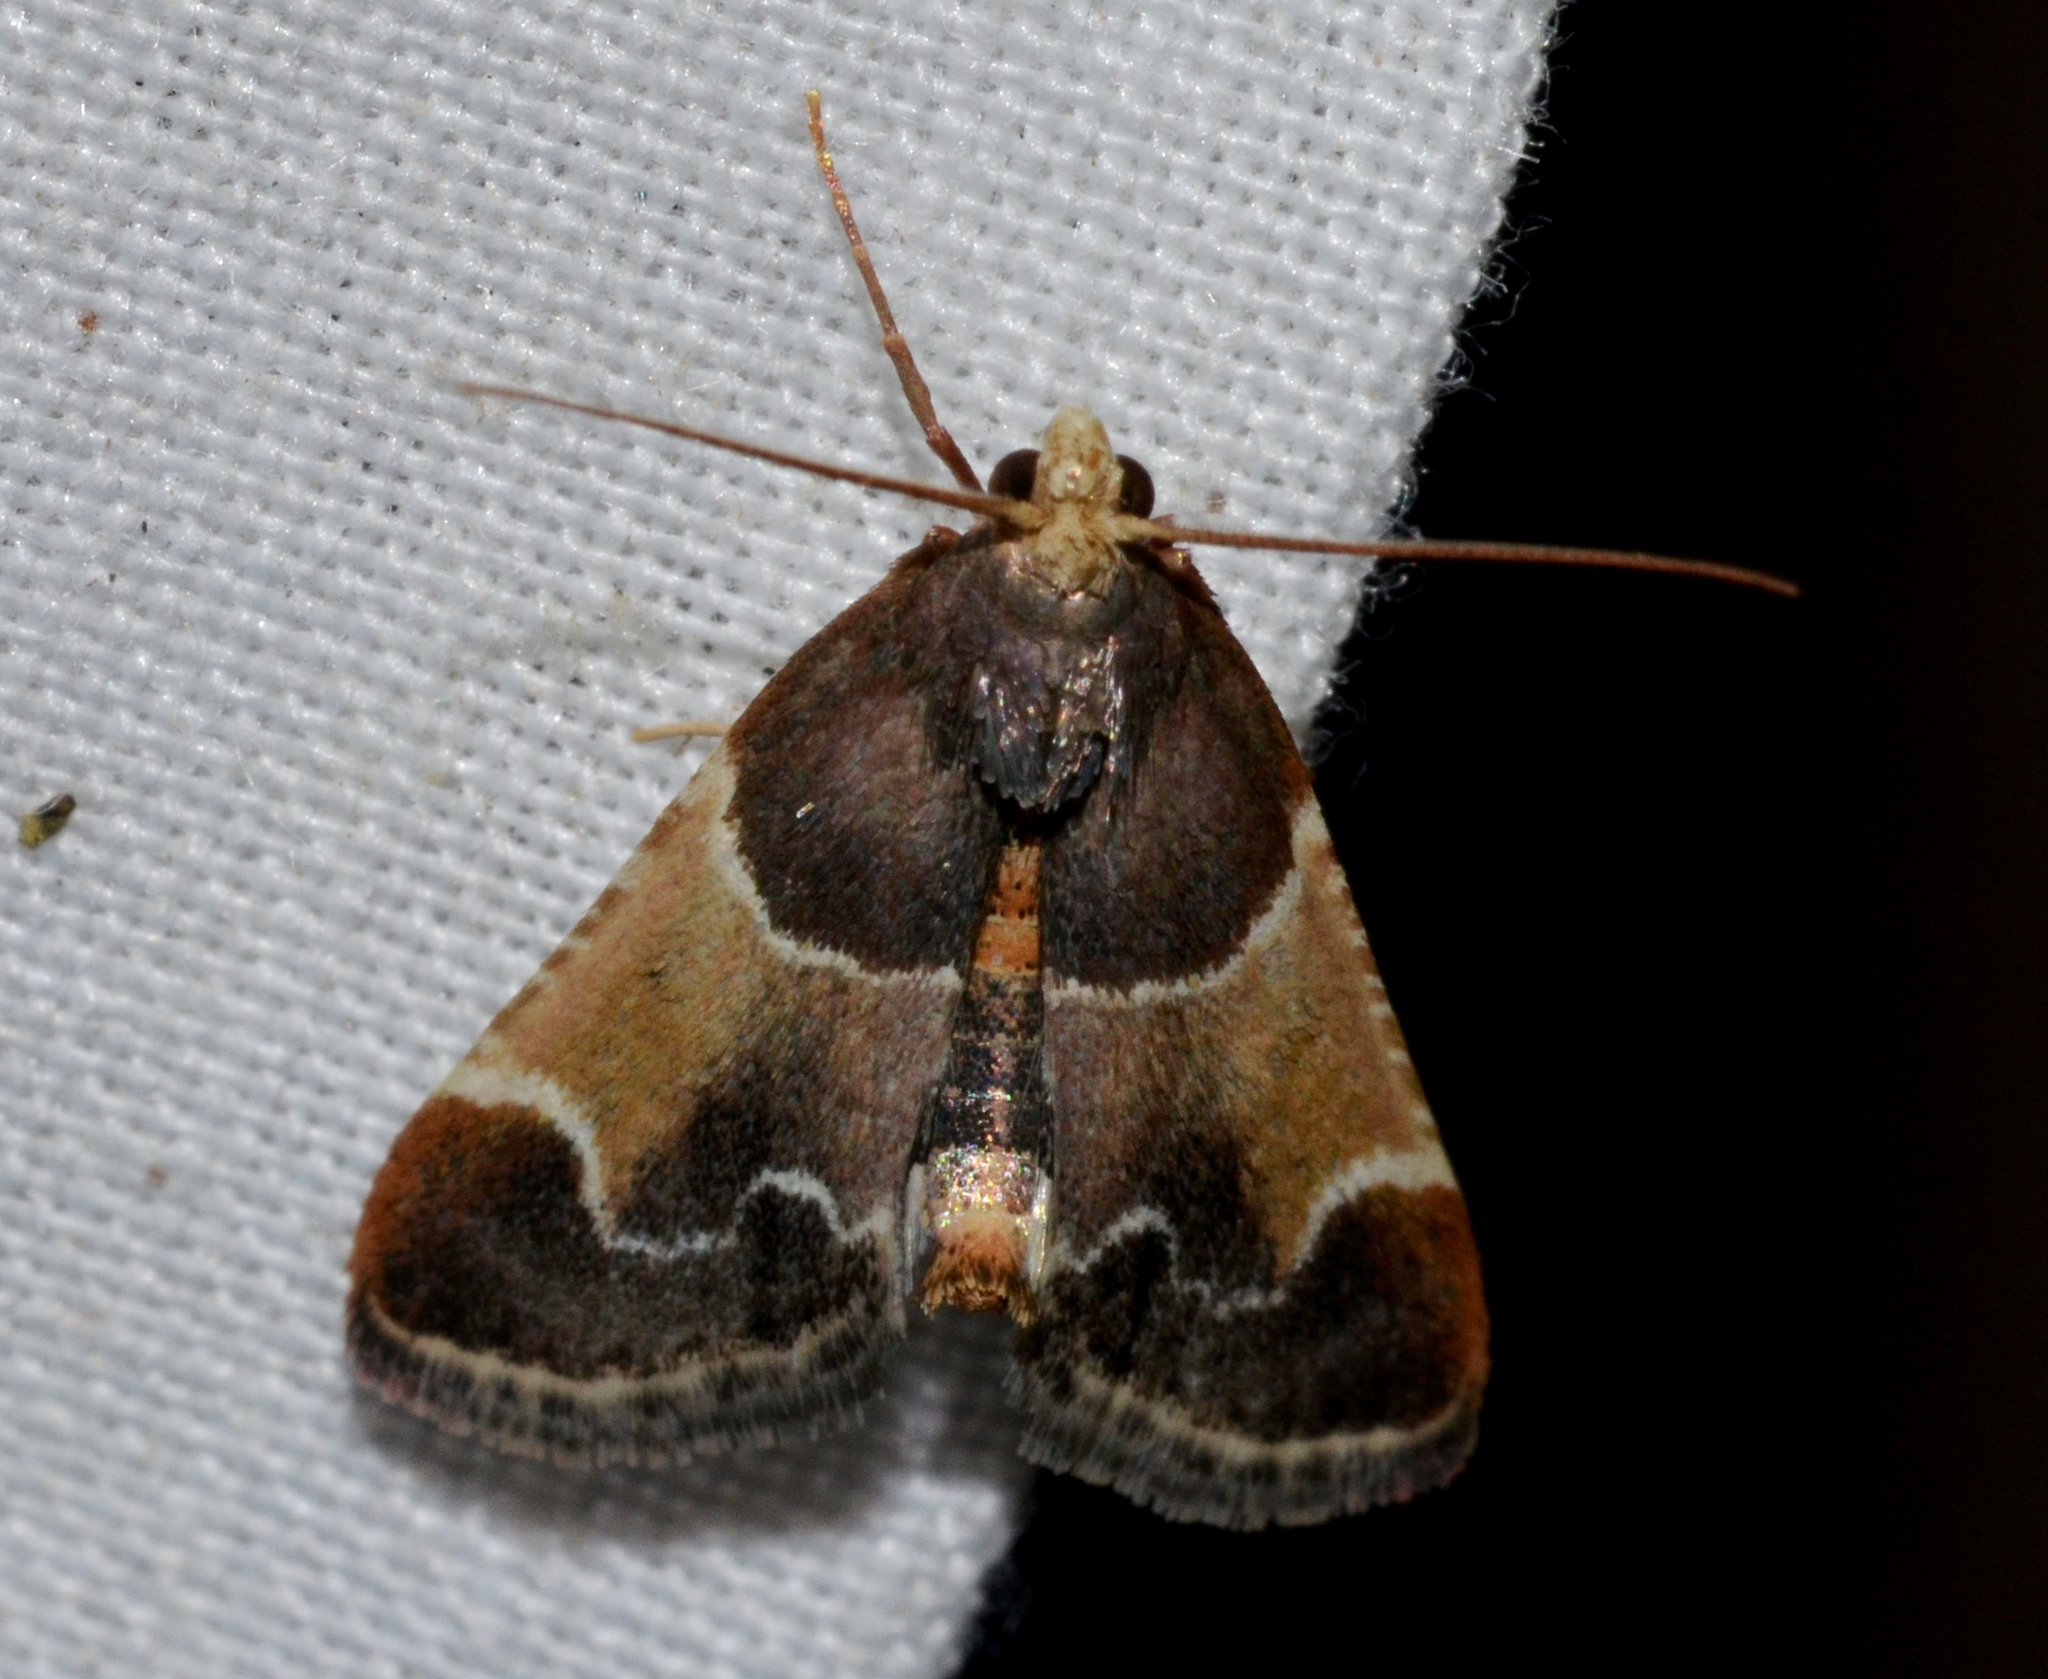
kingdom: Animalia
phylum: Arthropoda
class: Insecta
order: Lepidoptera
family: Pyralidae
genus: Pyralis
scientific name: Pyralis farinalis
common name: Meal moth
